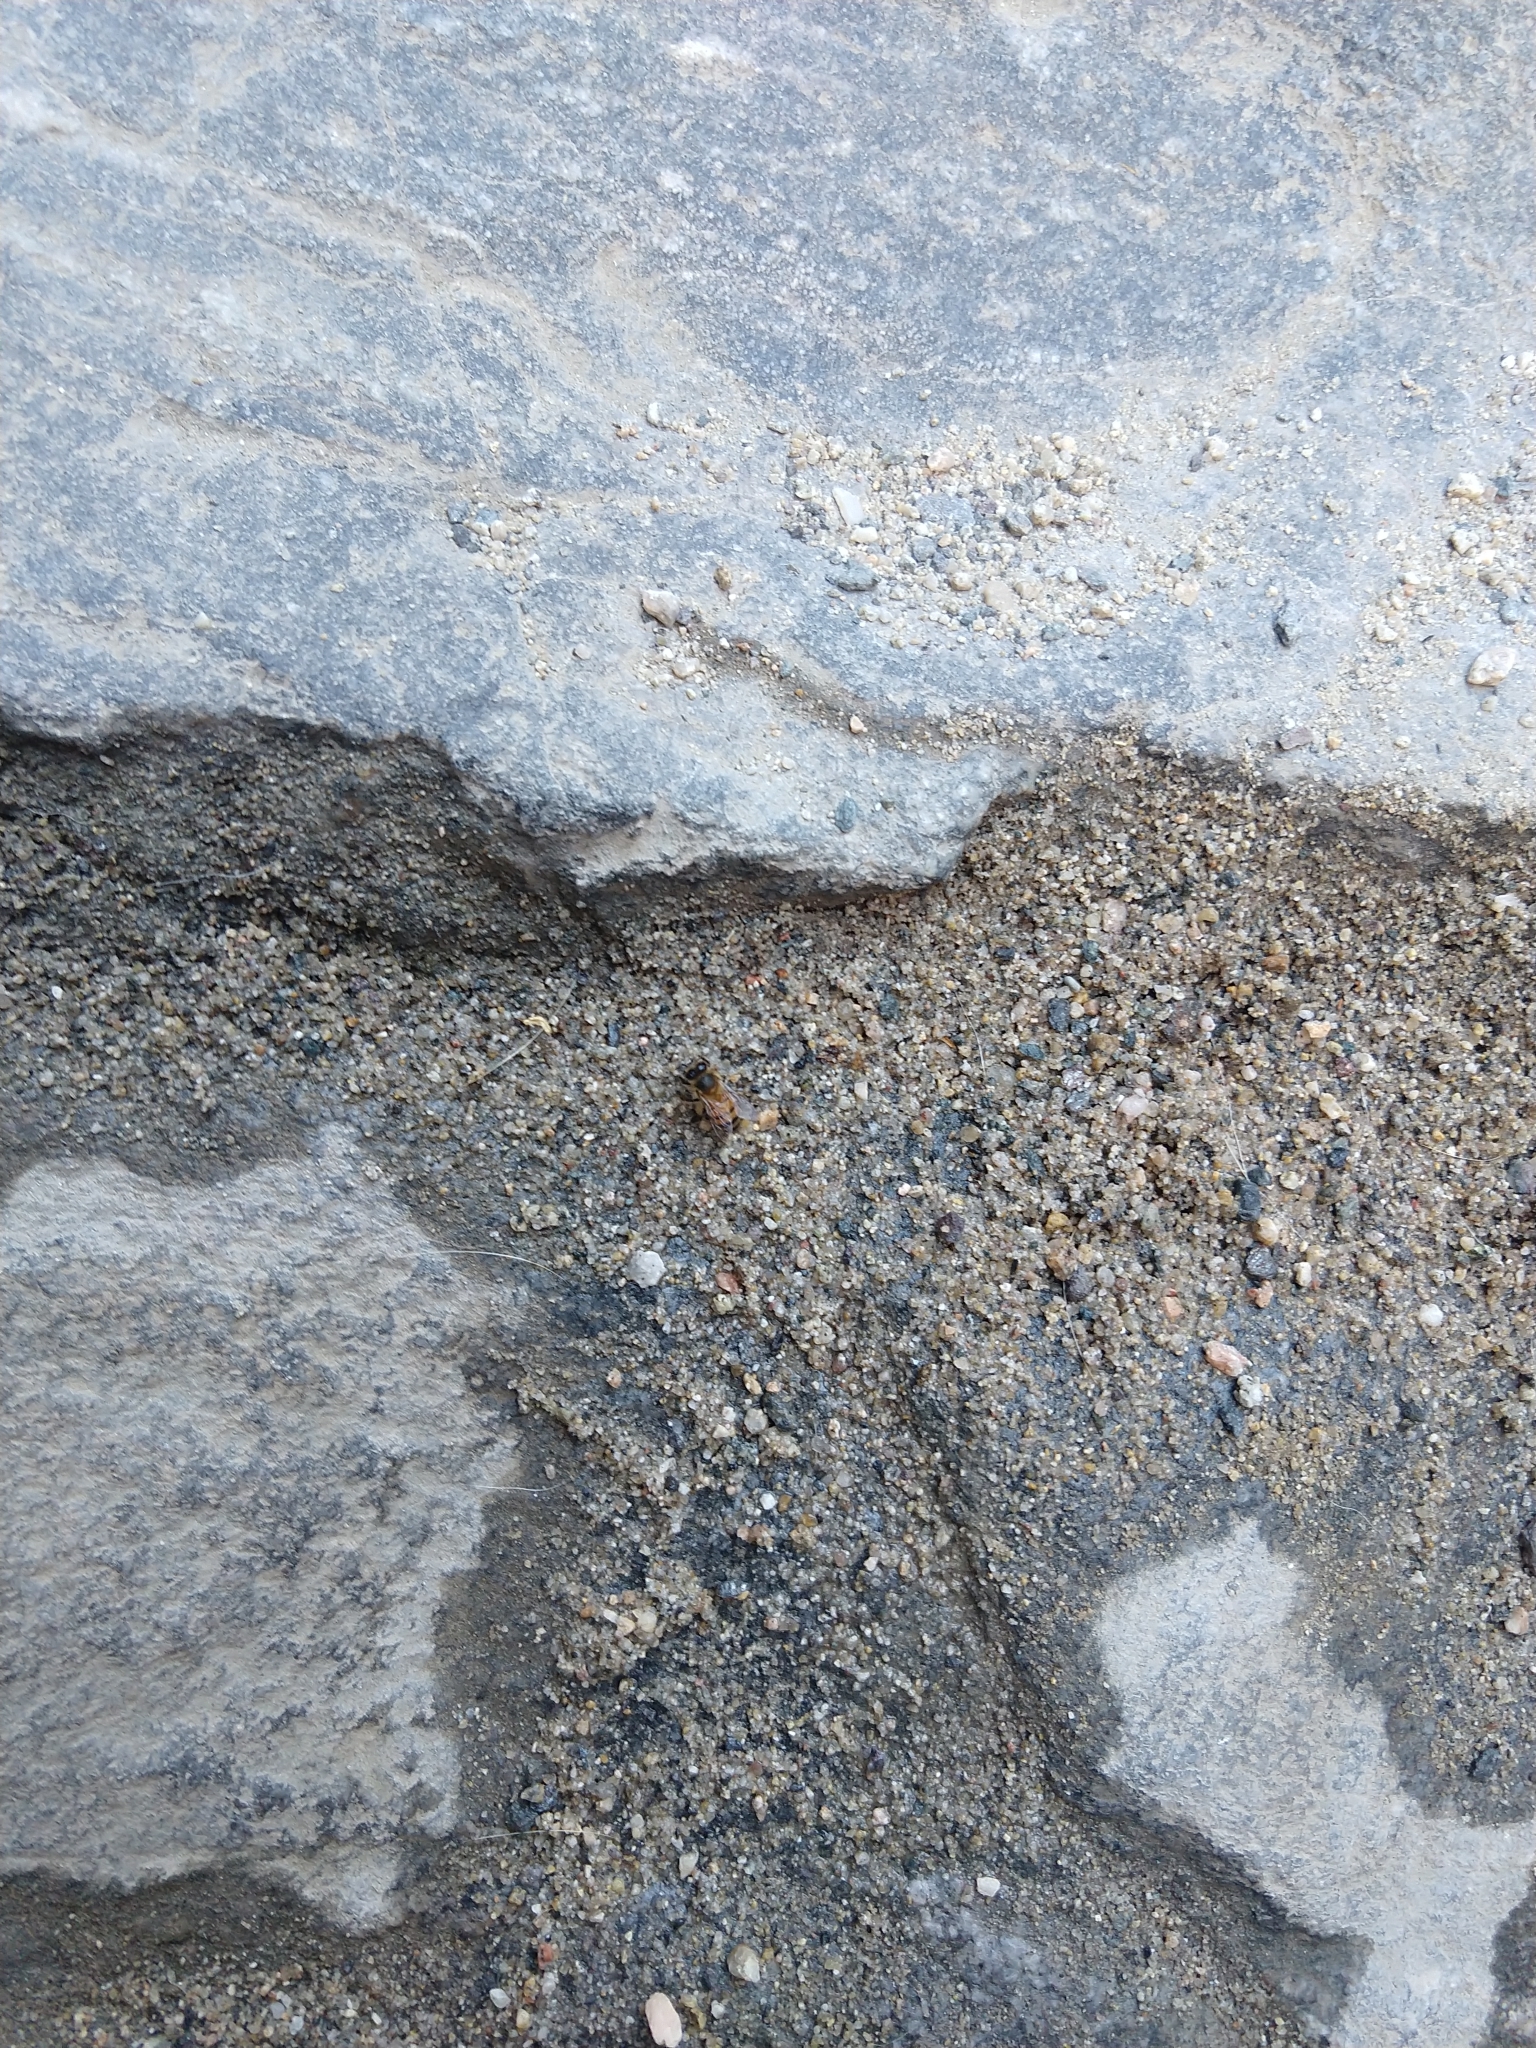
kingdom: Animalia
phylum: Arthropoda
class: Insecta
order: Hymenoptera
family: Apidae
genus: Apis
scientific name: Apis mellifera
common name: Honey bee
